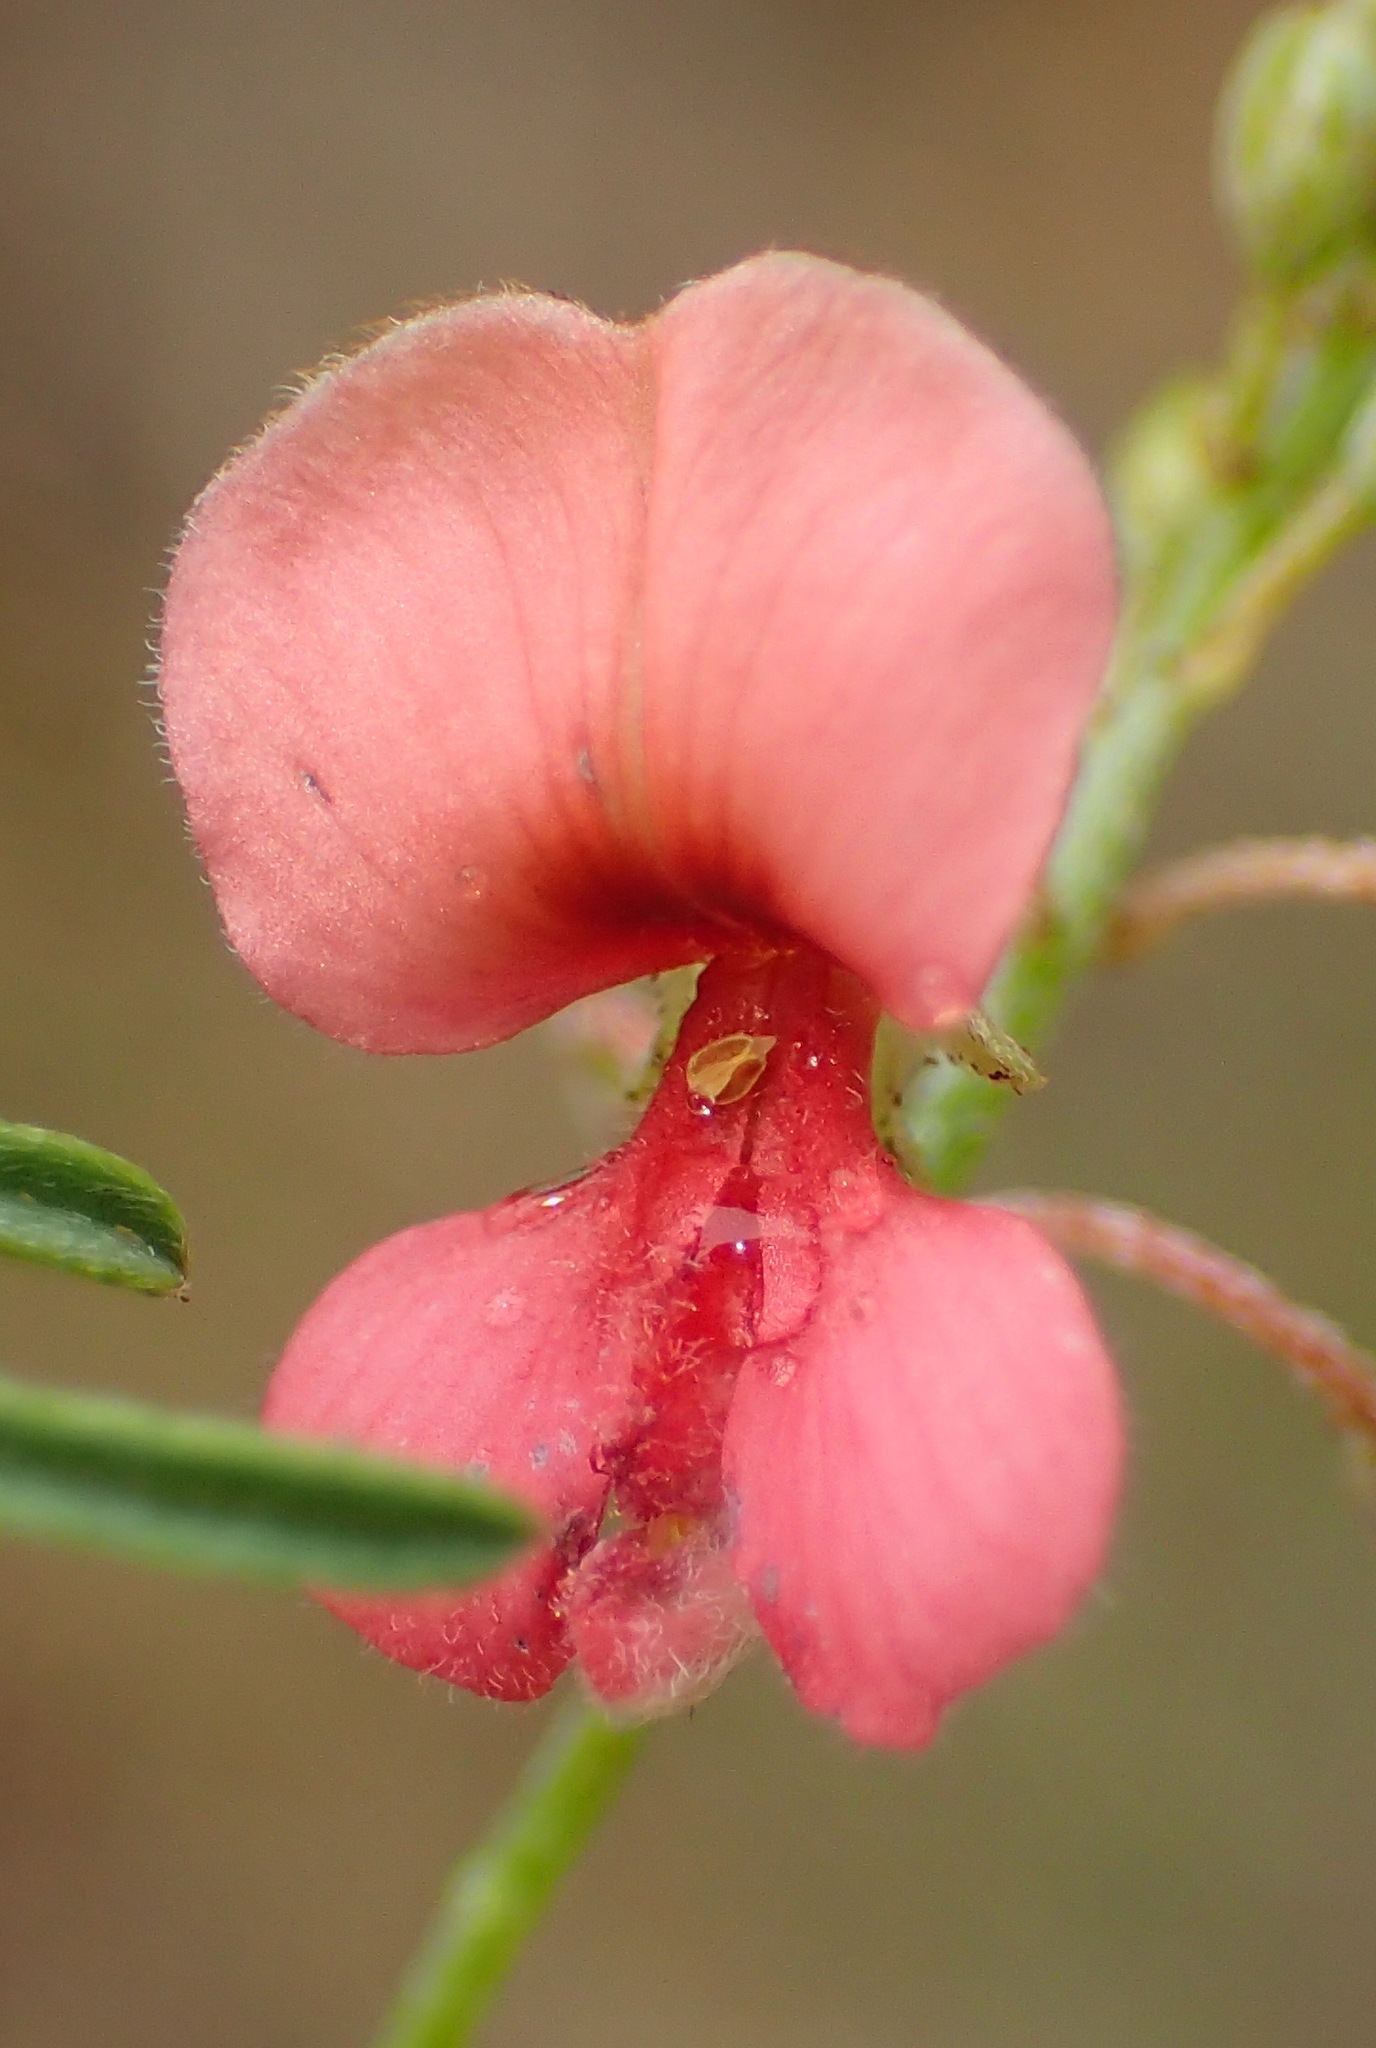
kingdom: Plantae
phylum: Tracheophyta
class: Magnoliopsida
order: Fabales
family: Fabaceae
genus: Indigofera
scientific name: Indigofera verrucosa
